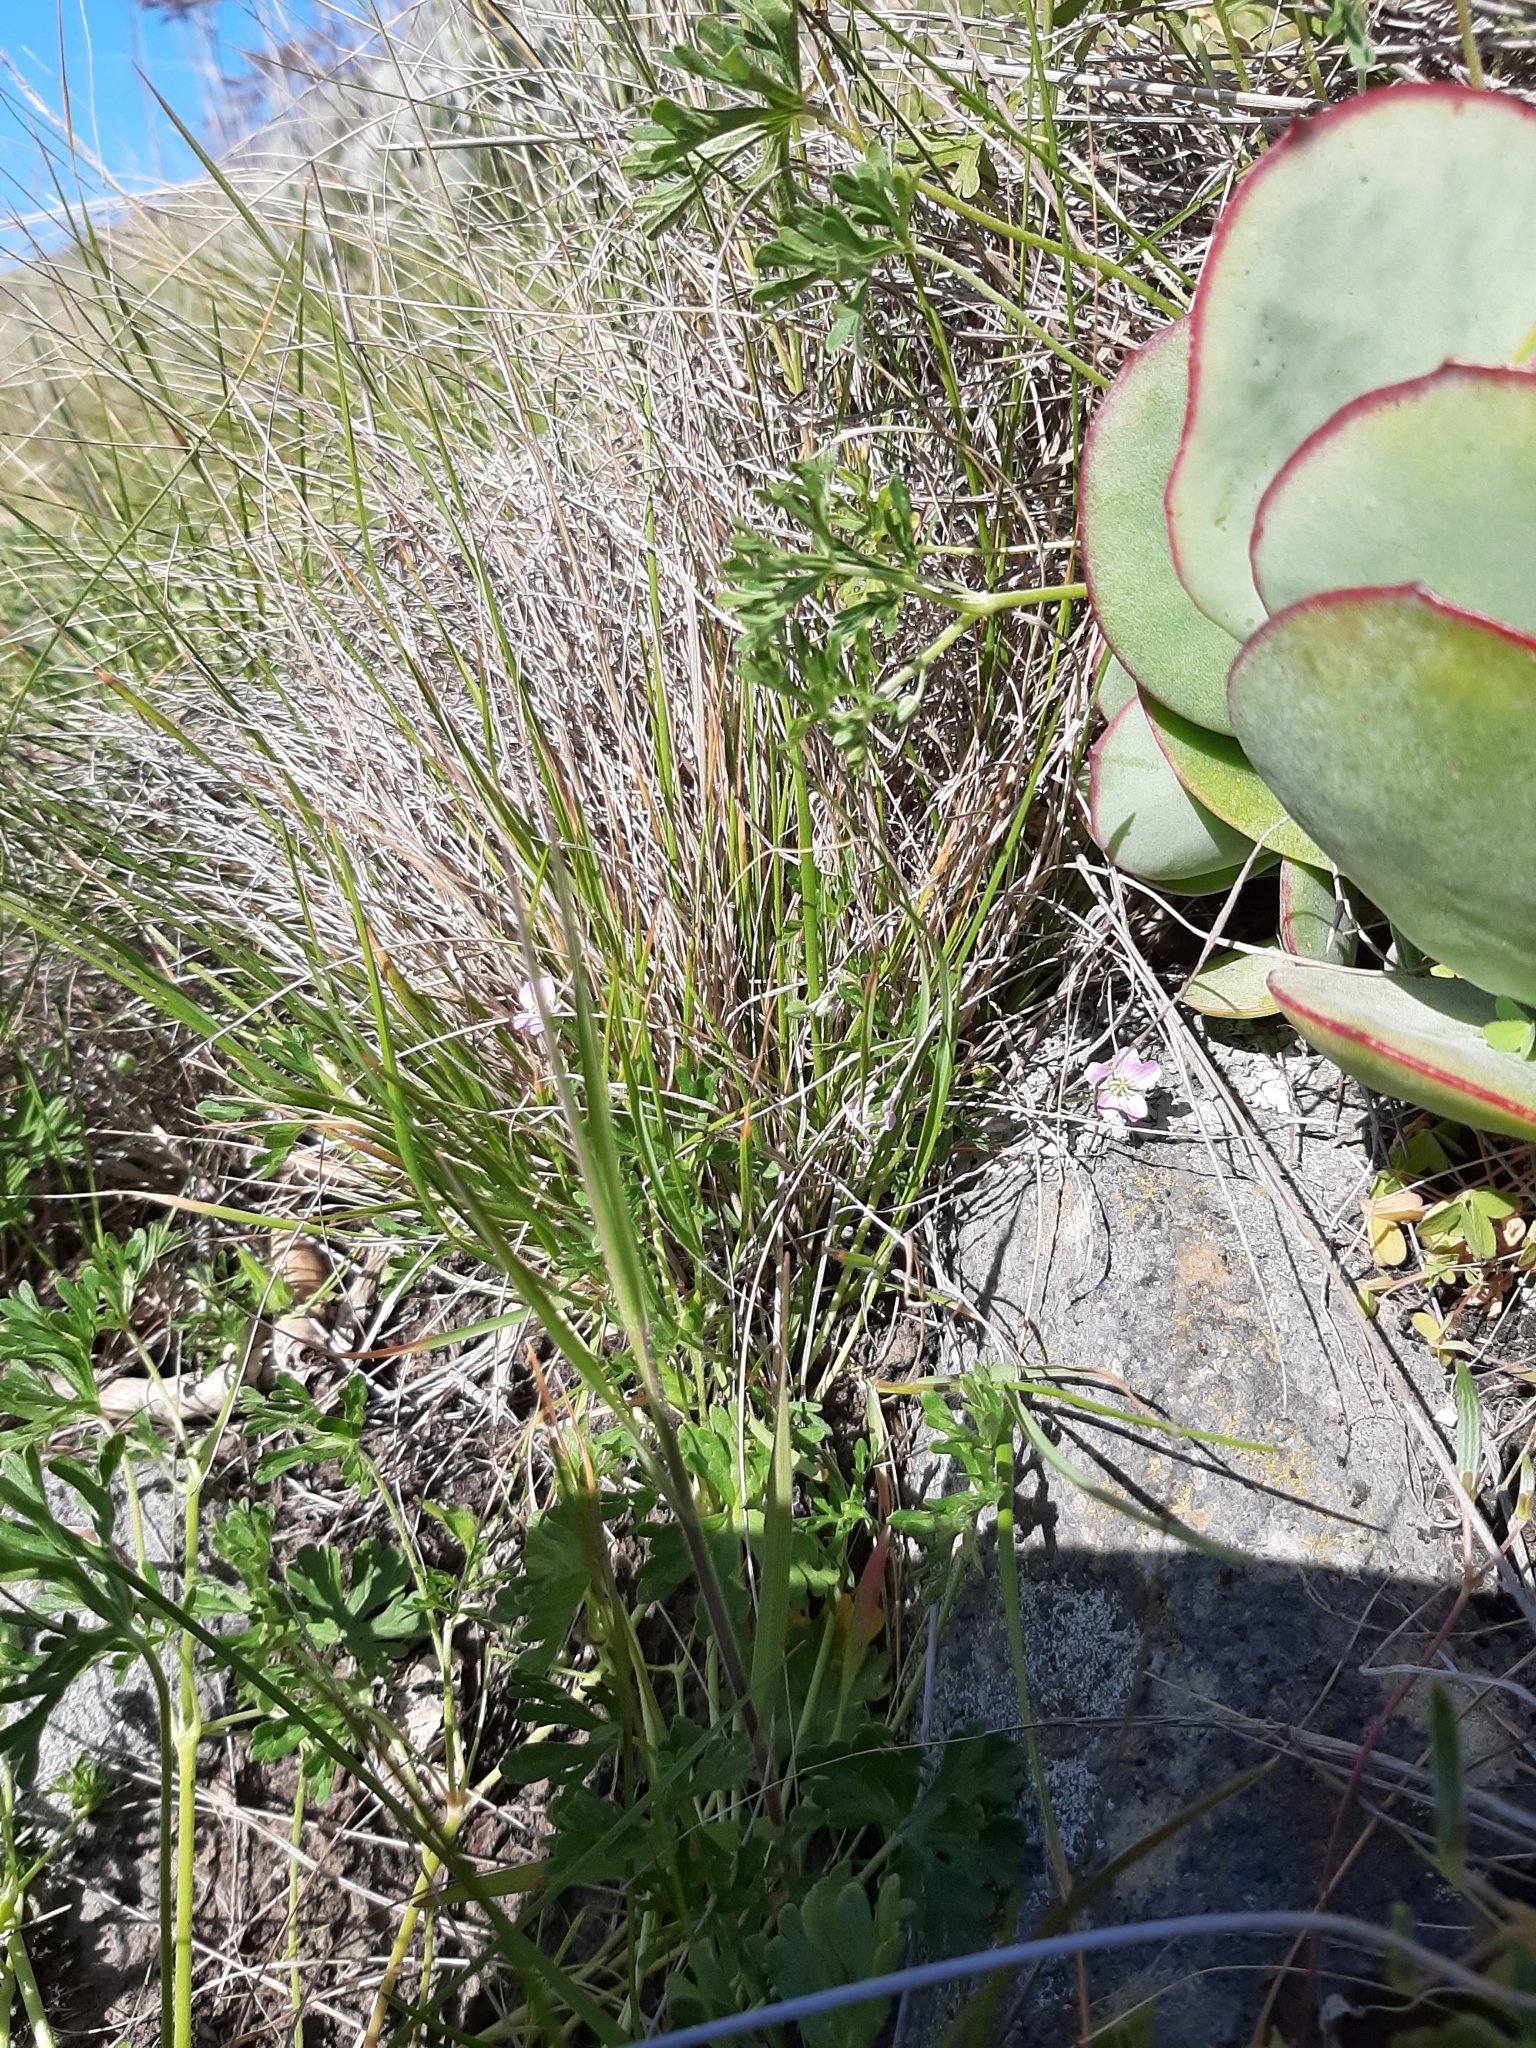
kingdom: Plantae
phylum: Tracheophyta
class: Magnoliopsida
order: Geraniales
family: Geraniaceae
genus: Geranium
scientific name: Geranium retrorsum
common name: New zealand geranium
